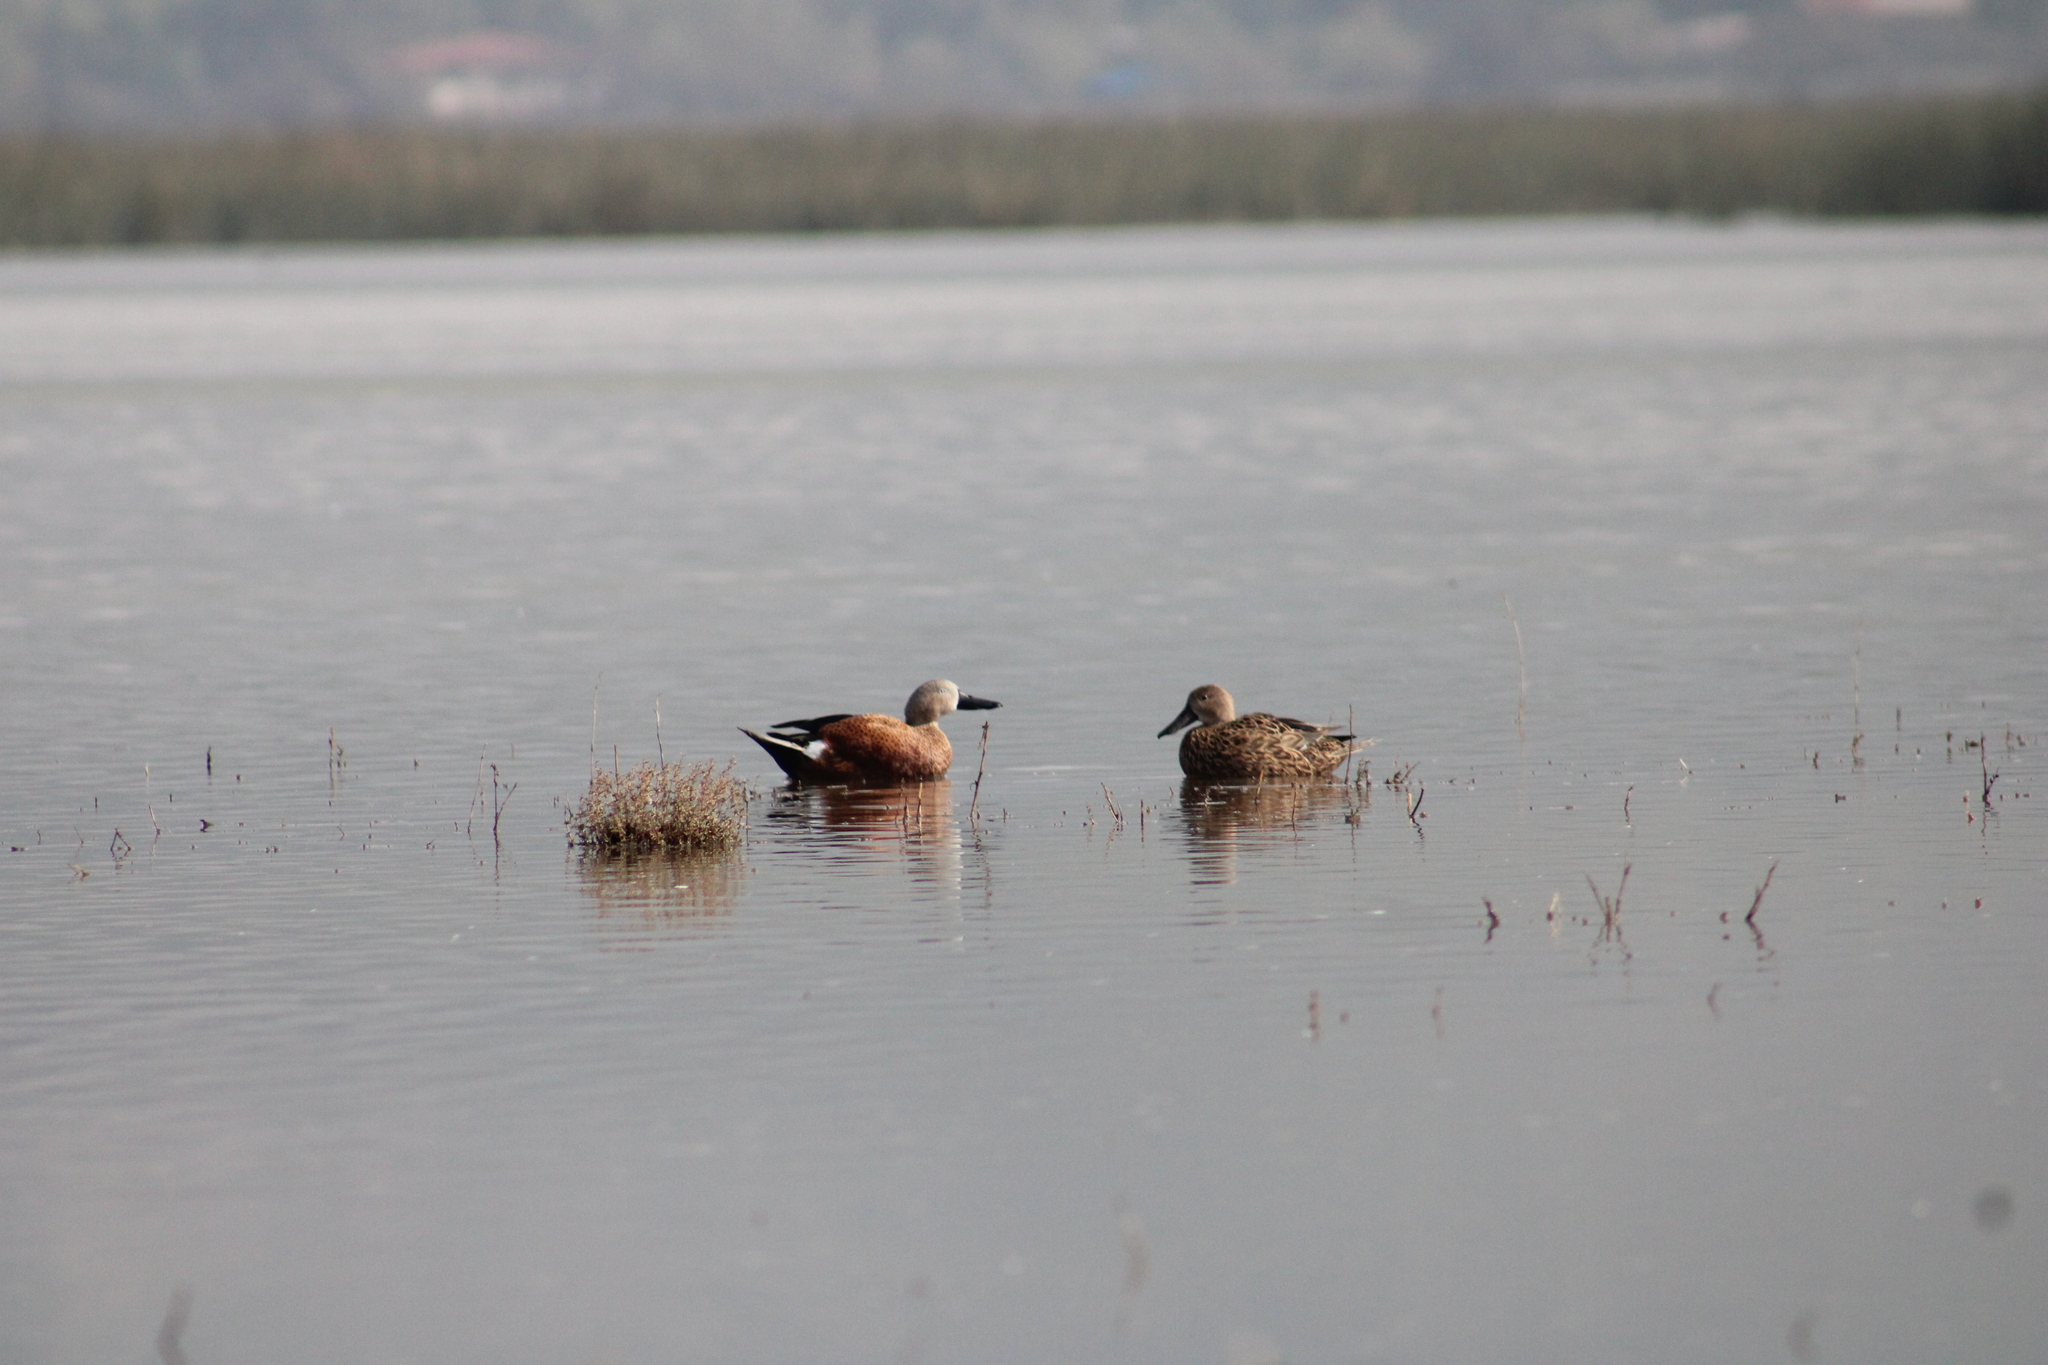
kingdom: Animalia
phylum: Chordata
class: Aves
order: Anseriformes
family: Anatidae
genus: Spatula
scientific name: Spatula platalea
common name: Red shoveler
